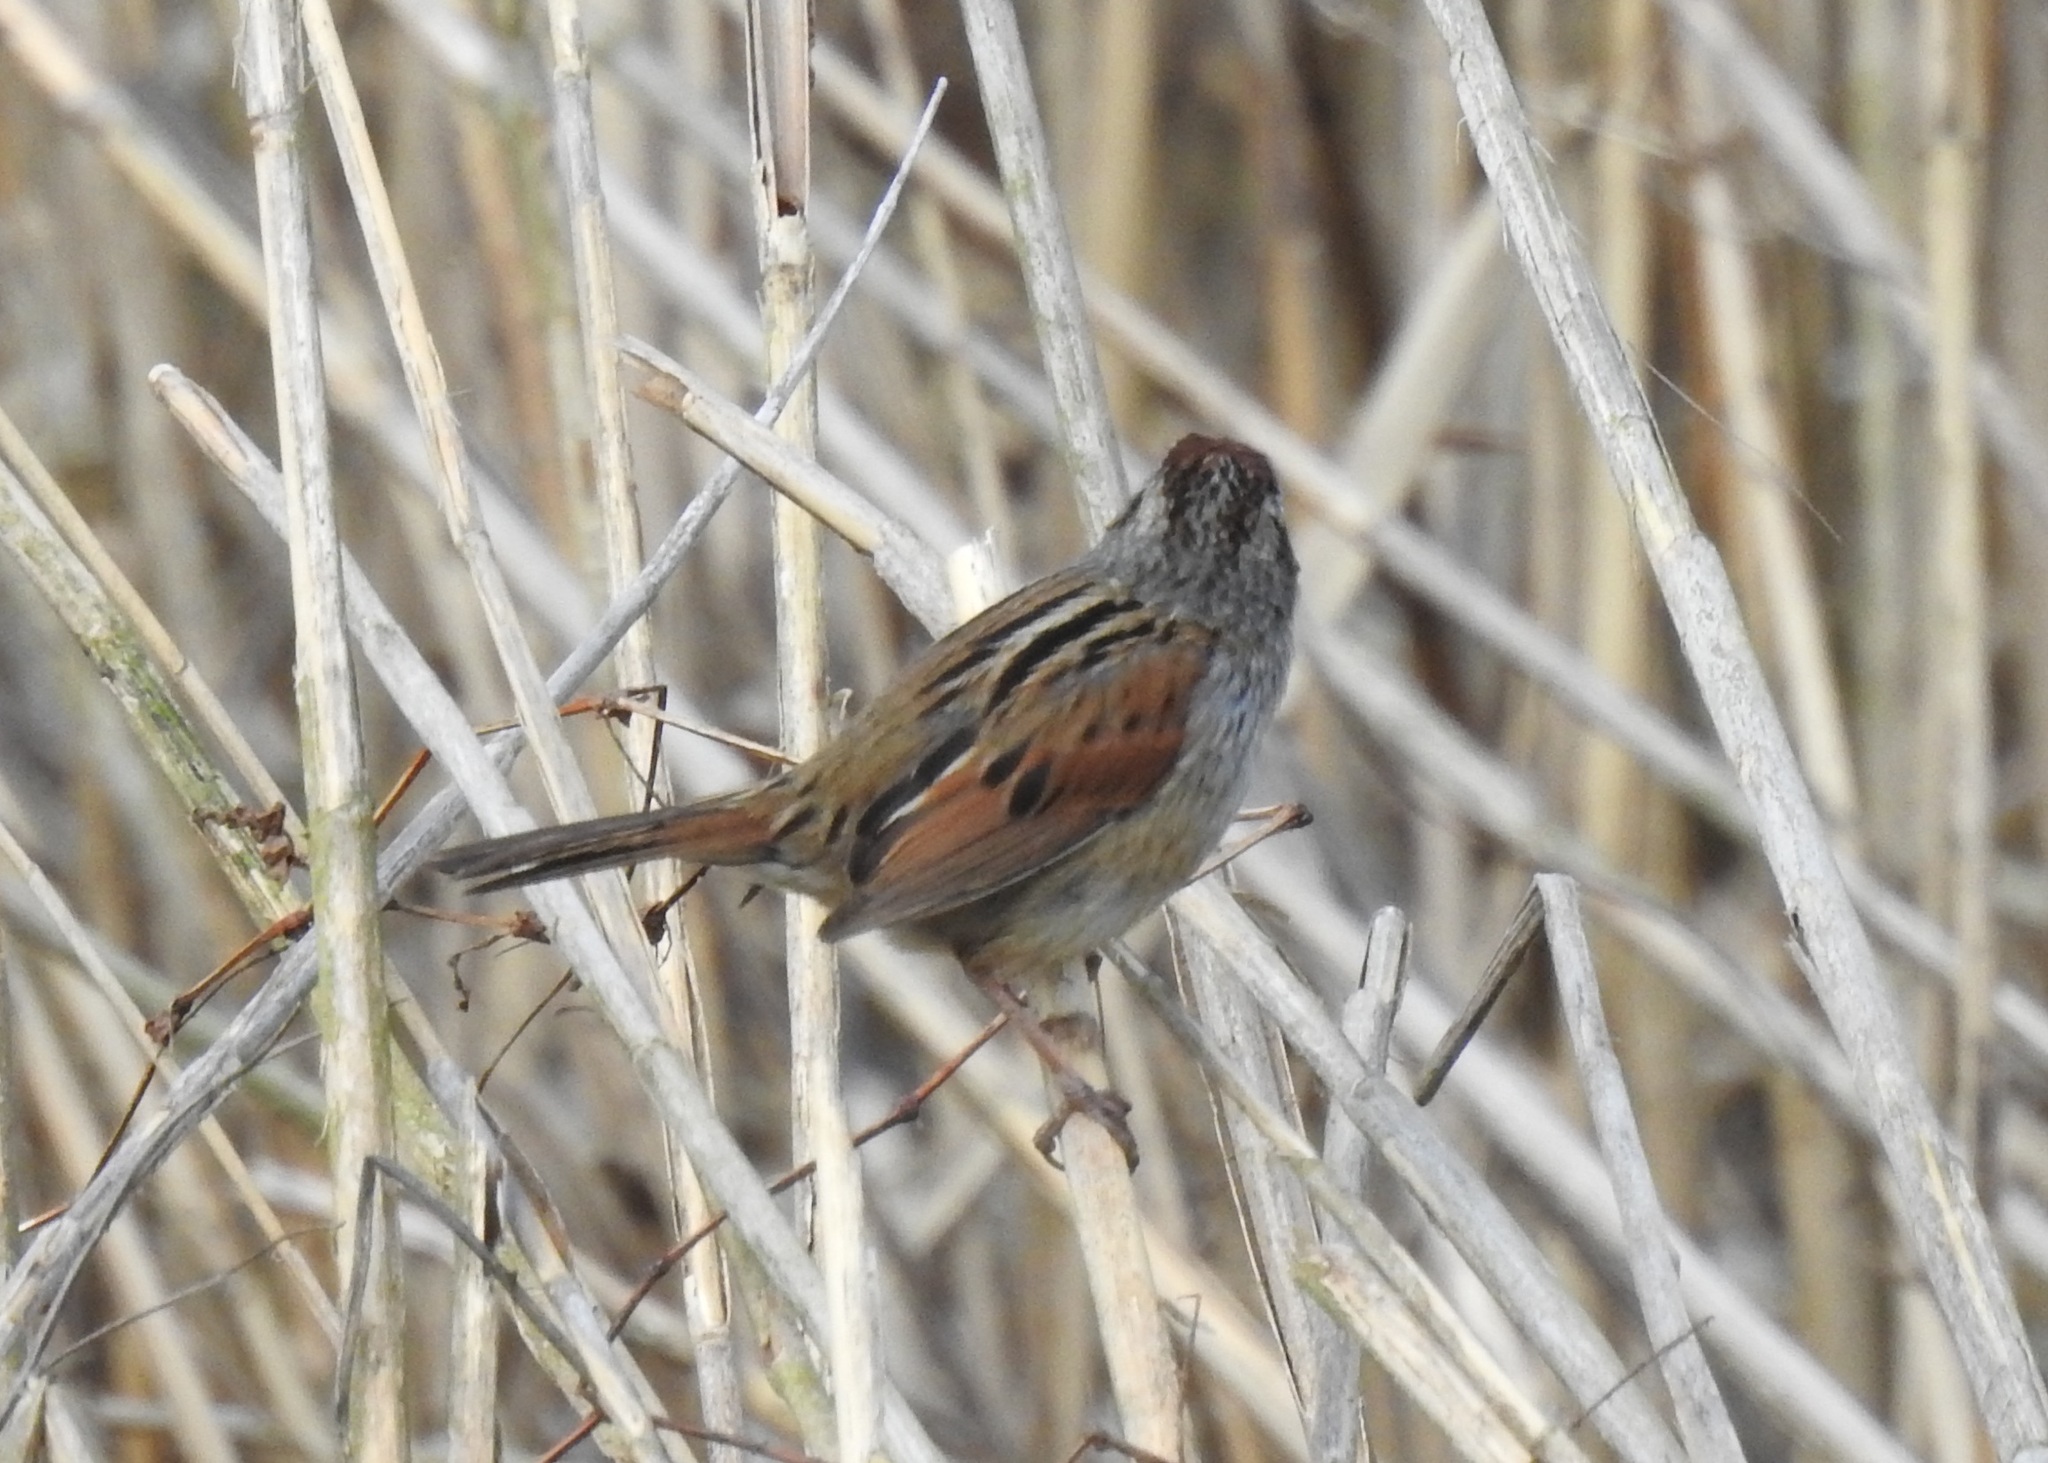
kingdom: Animalia
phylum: Chordata
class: Aves
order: Passeriformes
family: Passerellidae
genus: Melospiza
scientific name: Melospiza georgiana
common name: Swamp sparrow
